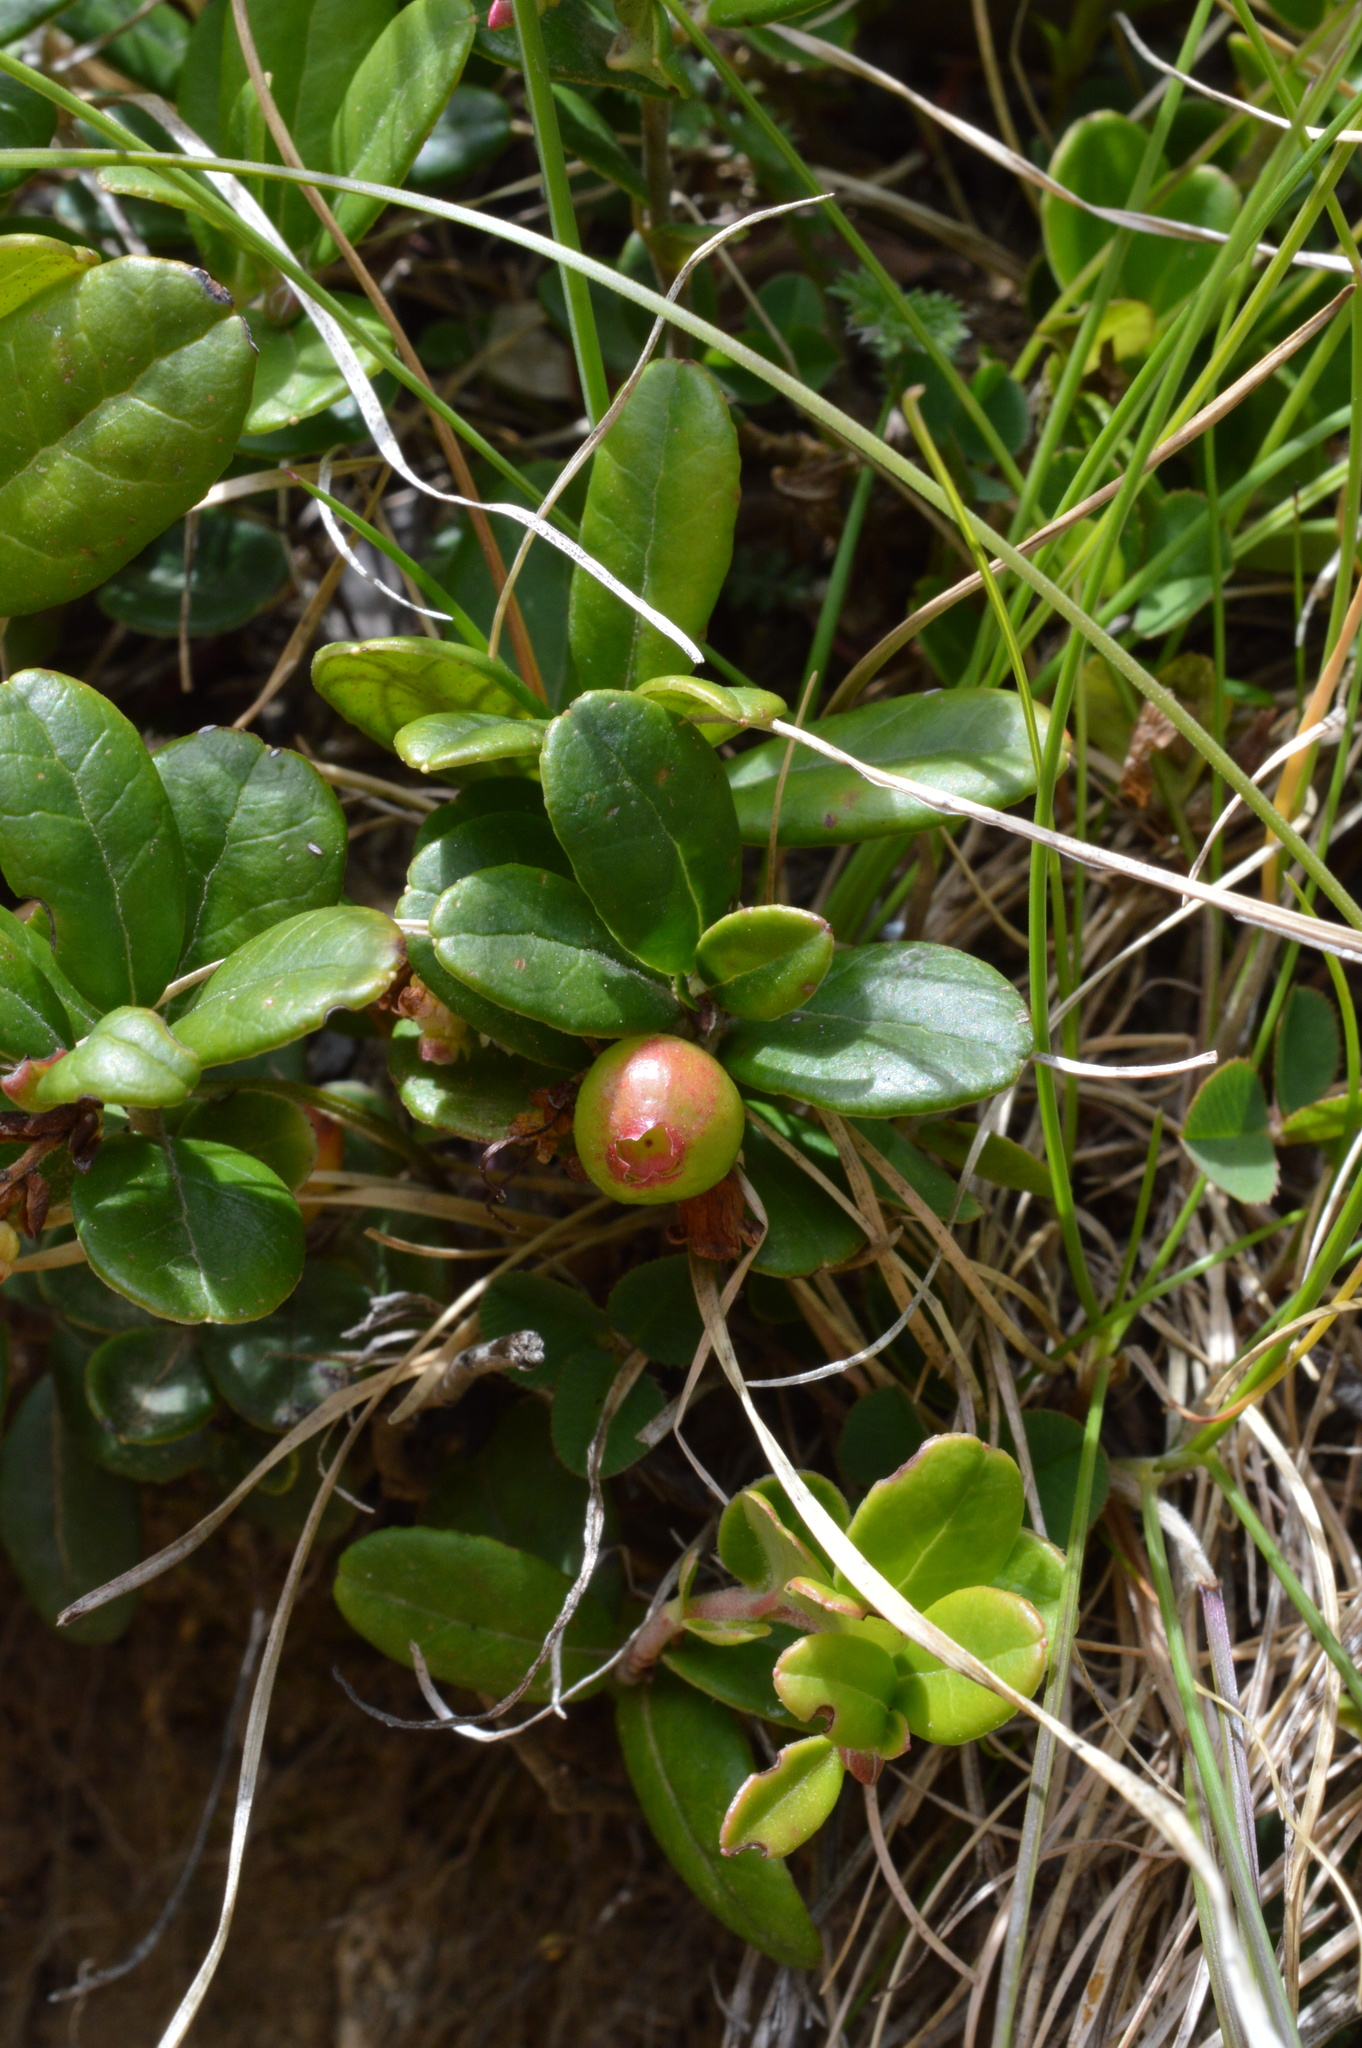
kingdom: Plantae
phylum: Tracheophyta
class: Magnoliopsida
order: Ericales
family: Ericaceae
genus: Vaccinium
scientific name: Vaccinium vitis-idaea
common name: Cowberry
